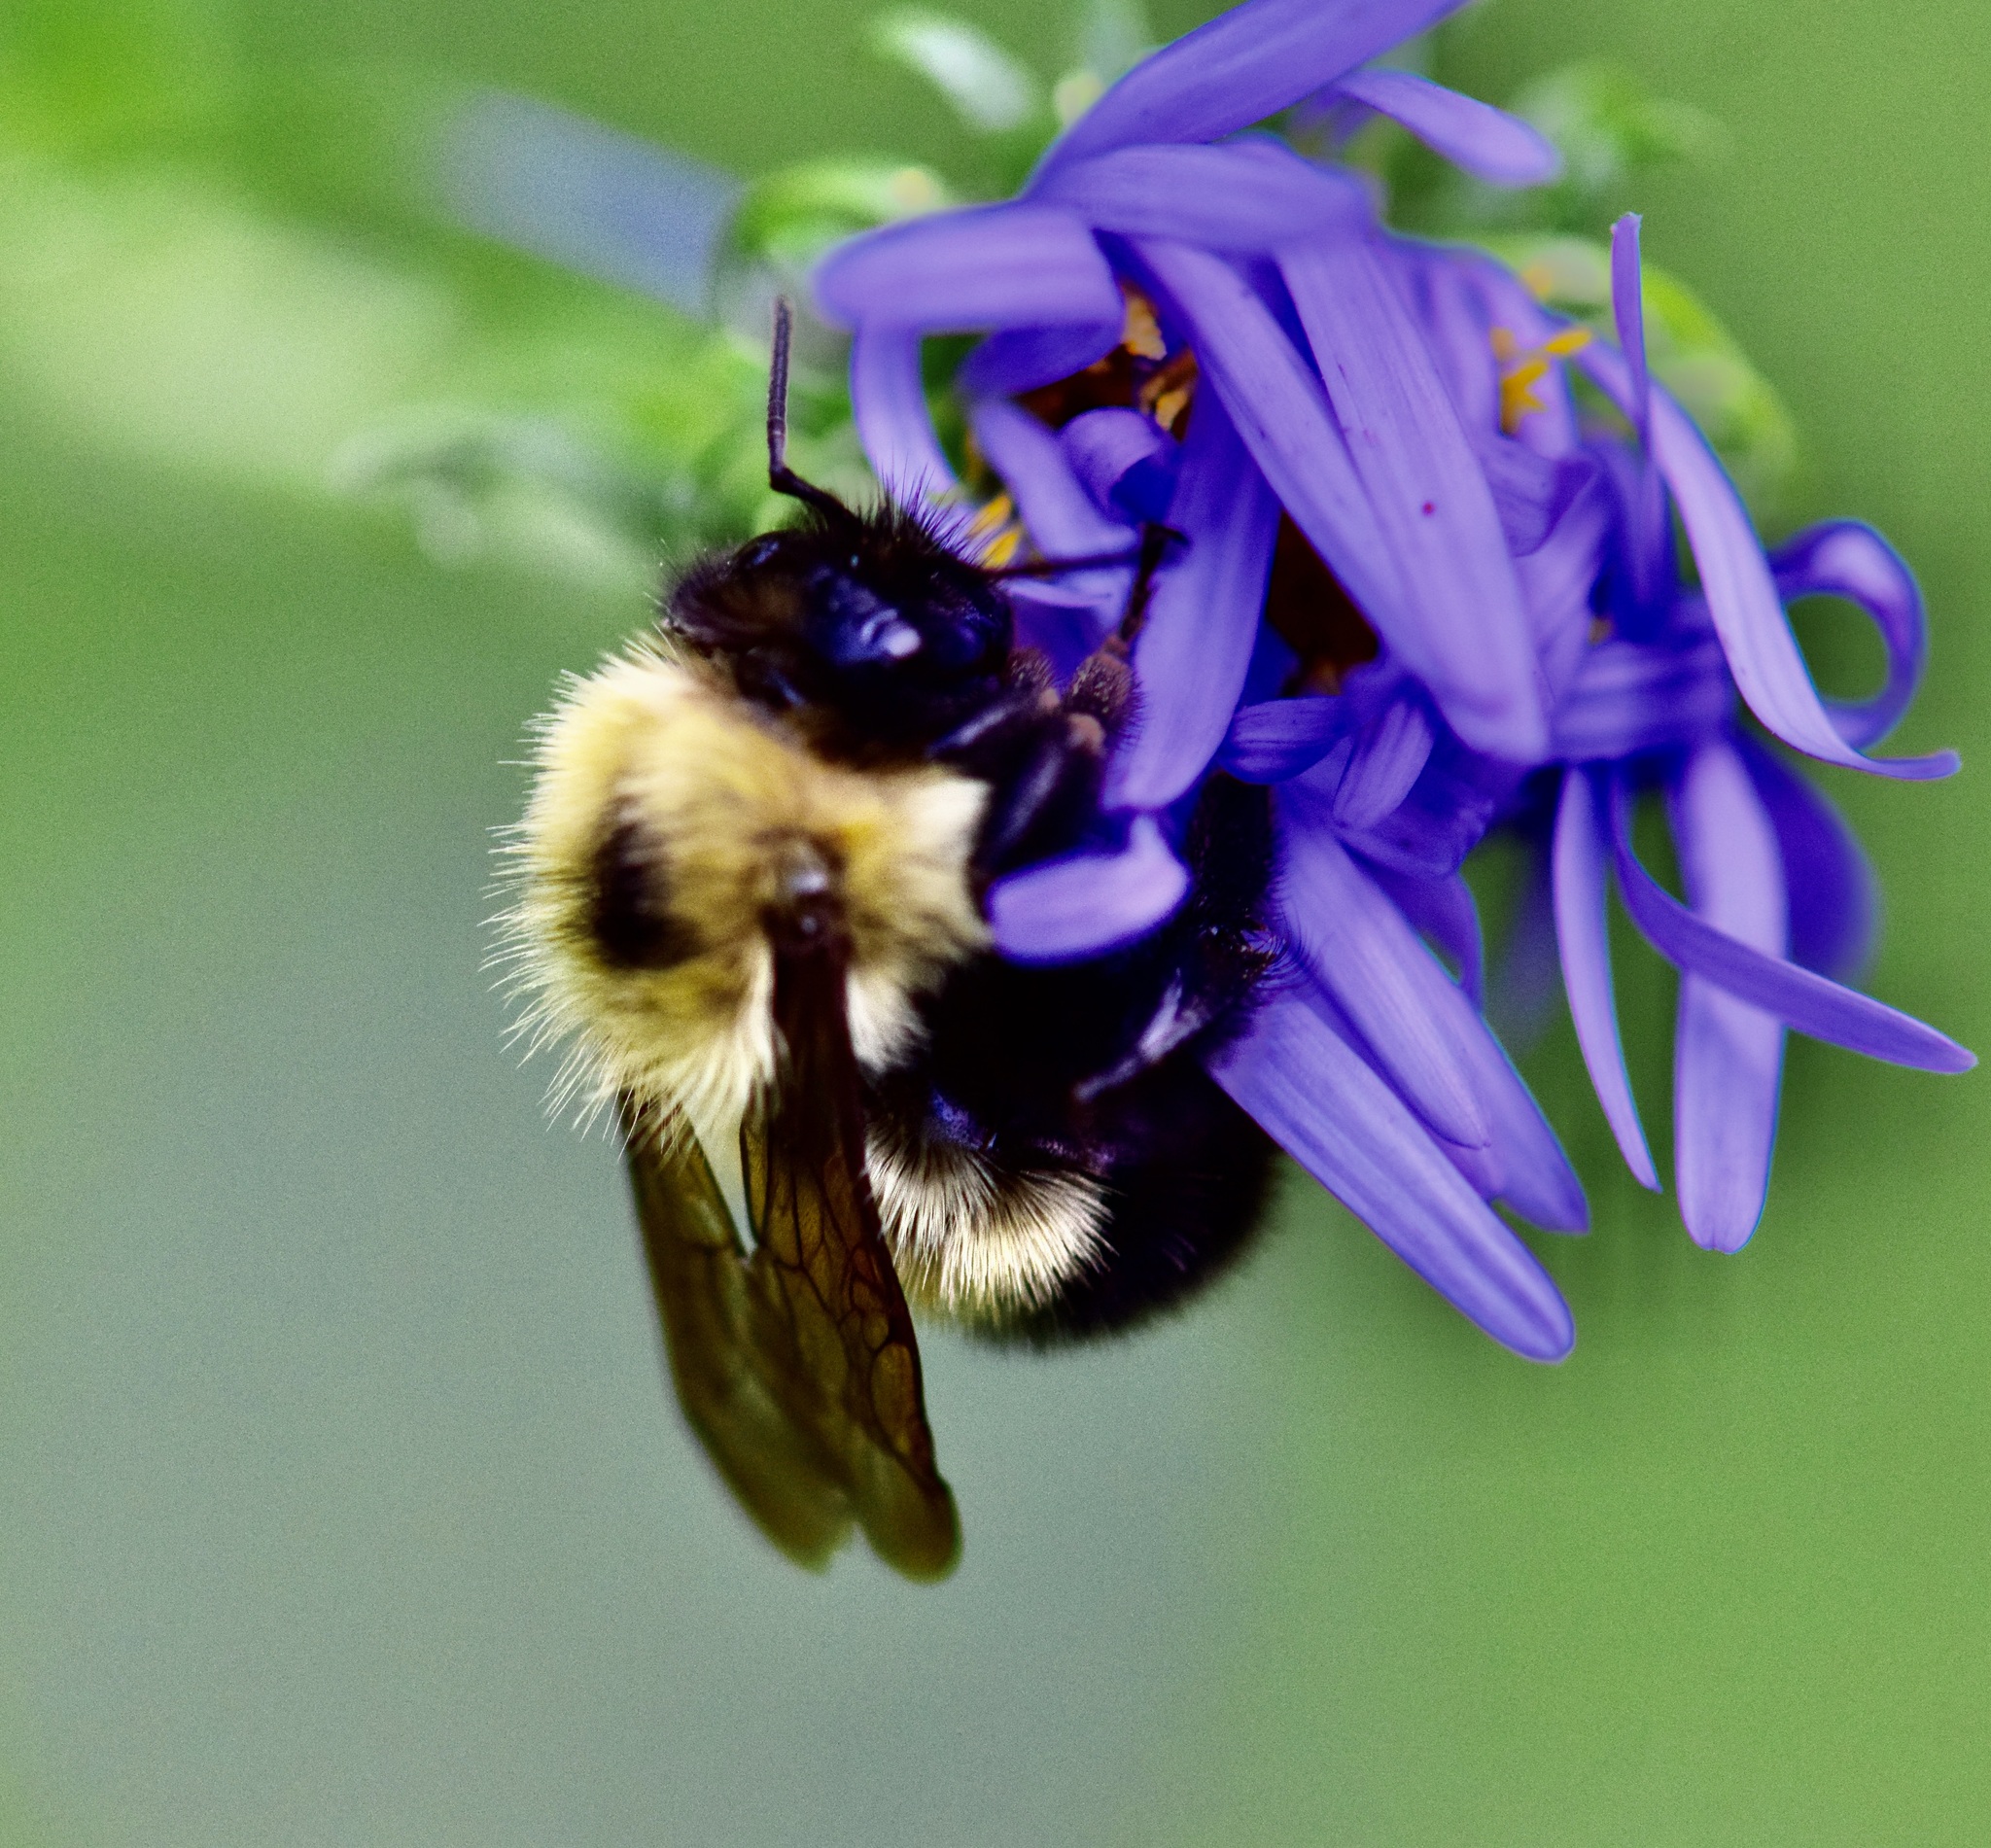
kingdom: Animalia
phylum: Arthropoda
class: Insecta
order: Hymenoptera
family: Apidae
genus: Pyrobombus
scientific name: Pyrobombus
